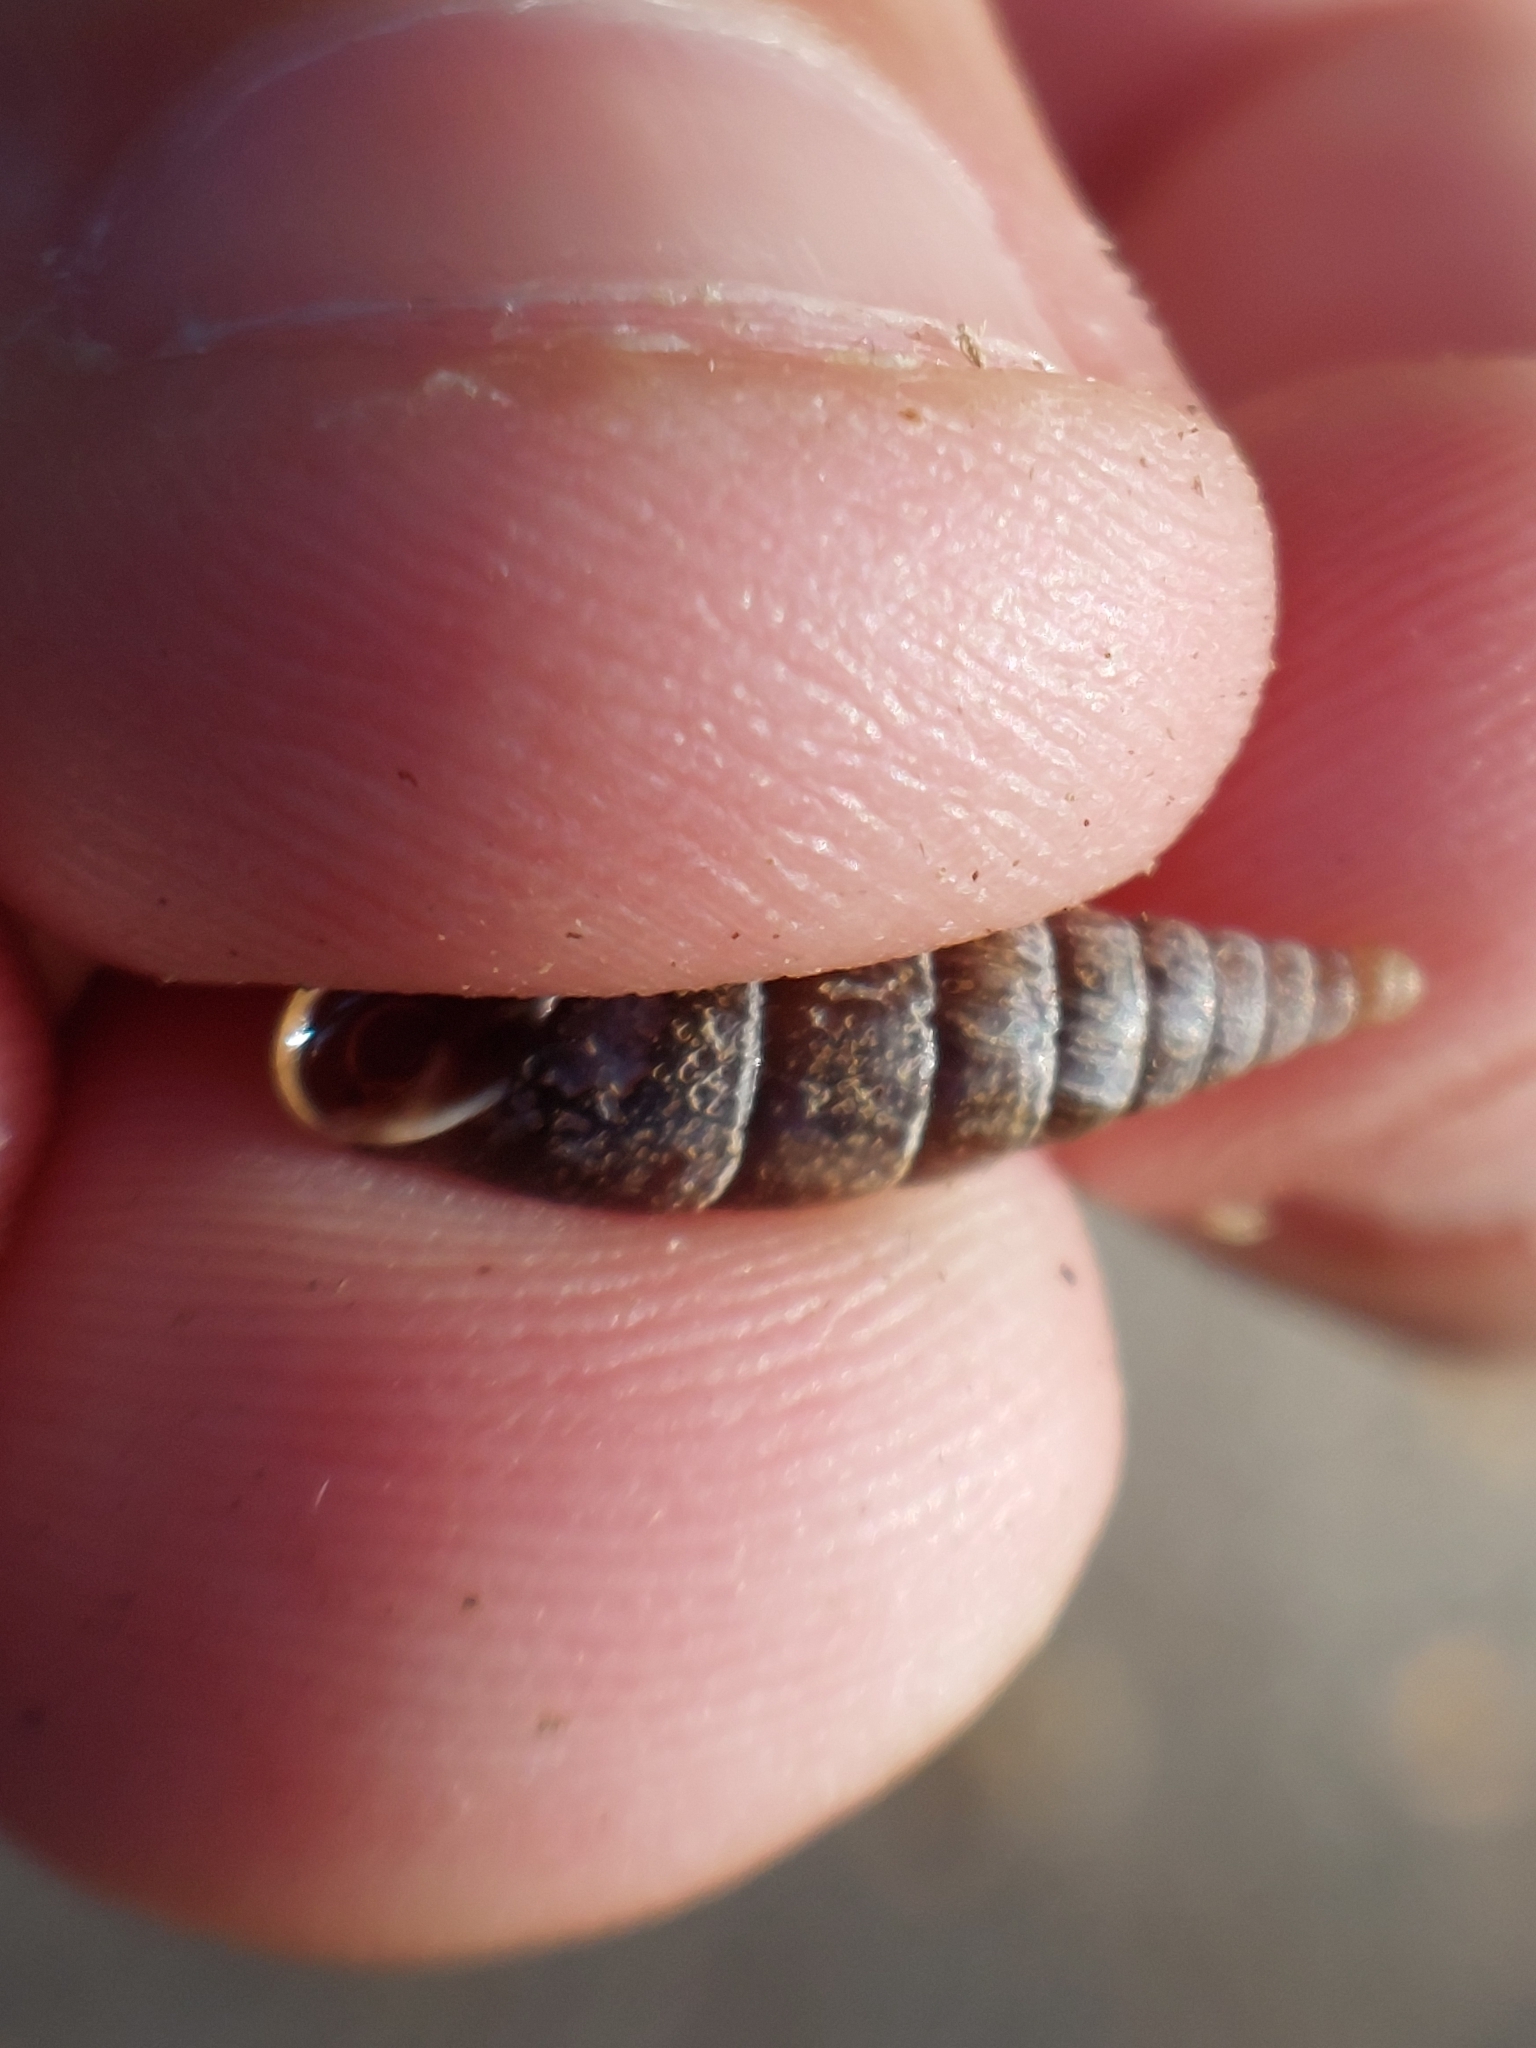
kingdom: Animalia
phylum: Mollusca
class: Gastropoda
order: Stylommatophora
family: Clausiliidae
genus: Cochlodina
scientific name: Cochlodina laminata
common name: Plaited door snail
